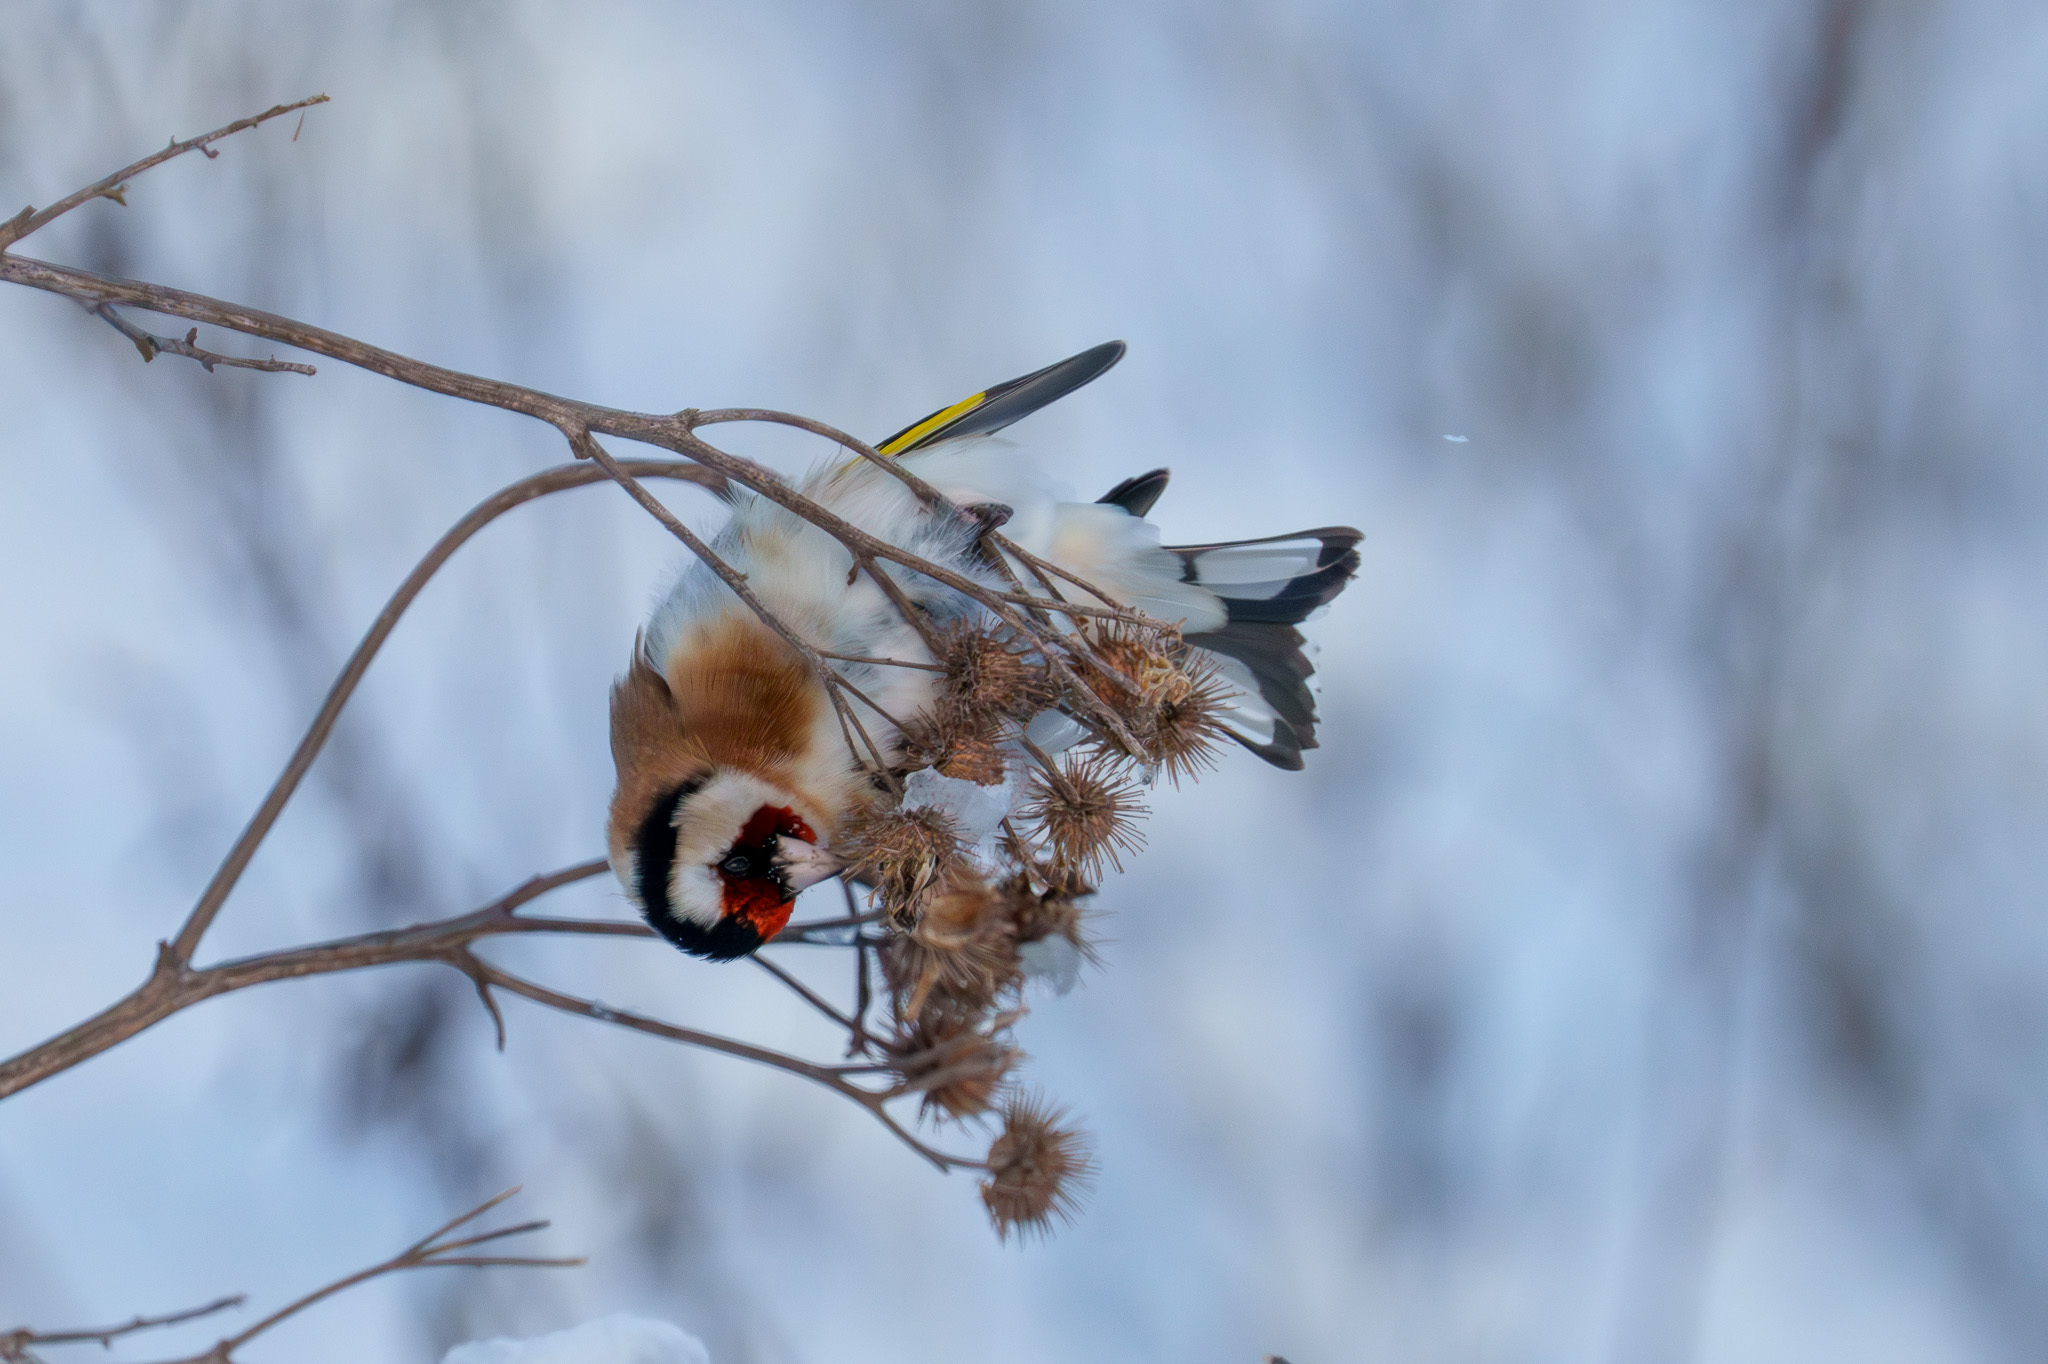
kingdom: Animalia
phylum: Chordata
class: Aves
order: Passeriformes
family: Fringillidae
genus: Carduelis
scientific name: Carduelis carduelis
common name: European goldfinch
